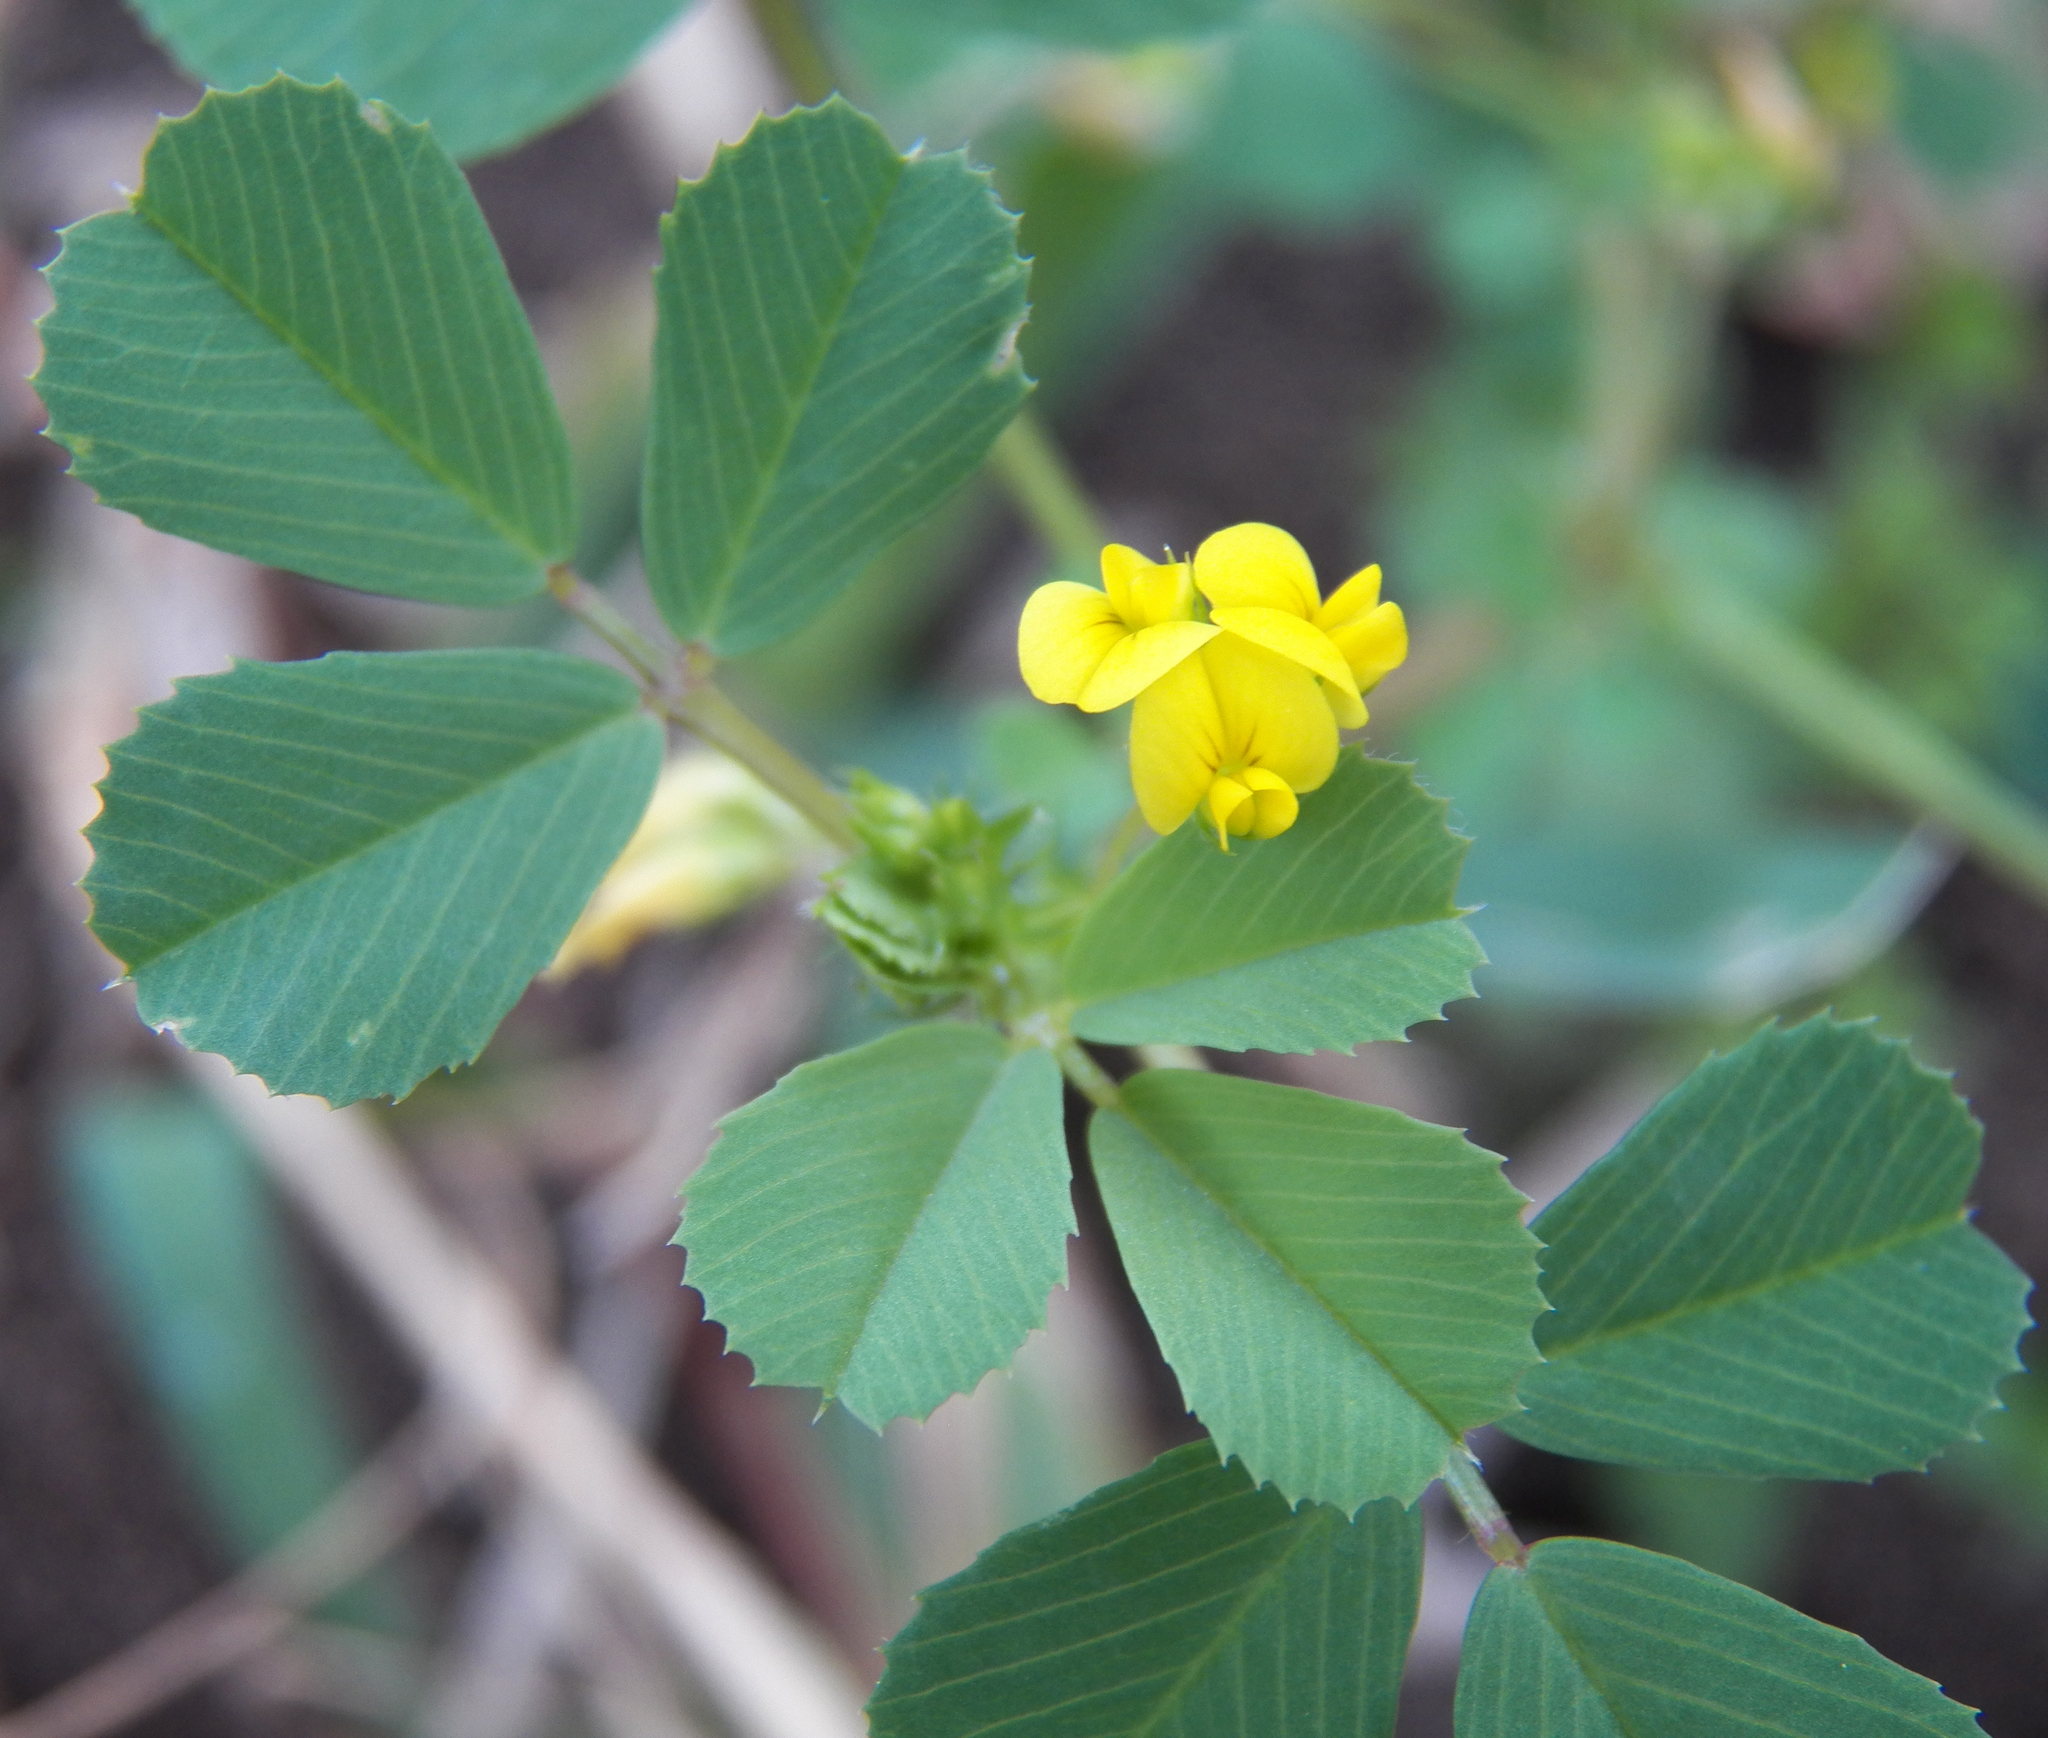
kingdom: Plantae
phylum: Tracheophyta
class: Magnoliopsida
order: Fabales
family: Fabaceae
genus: Medicago
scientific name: Medicago polymorpha
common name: Burclover
